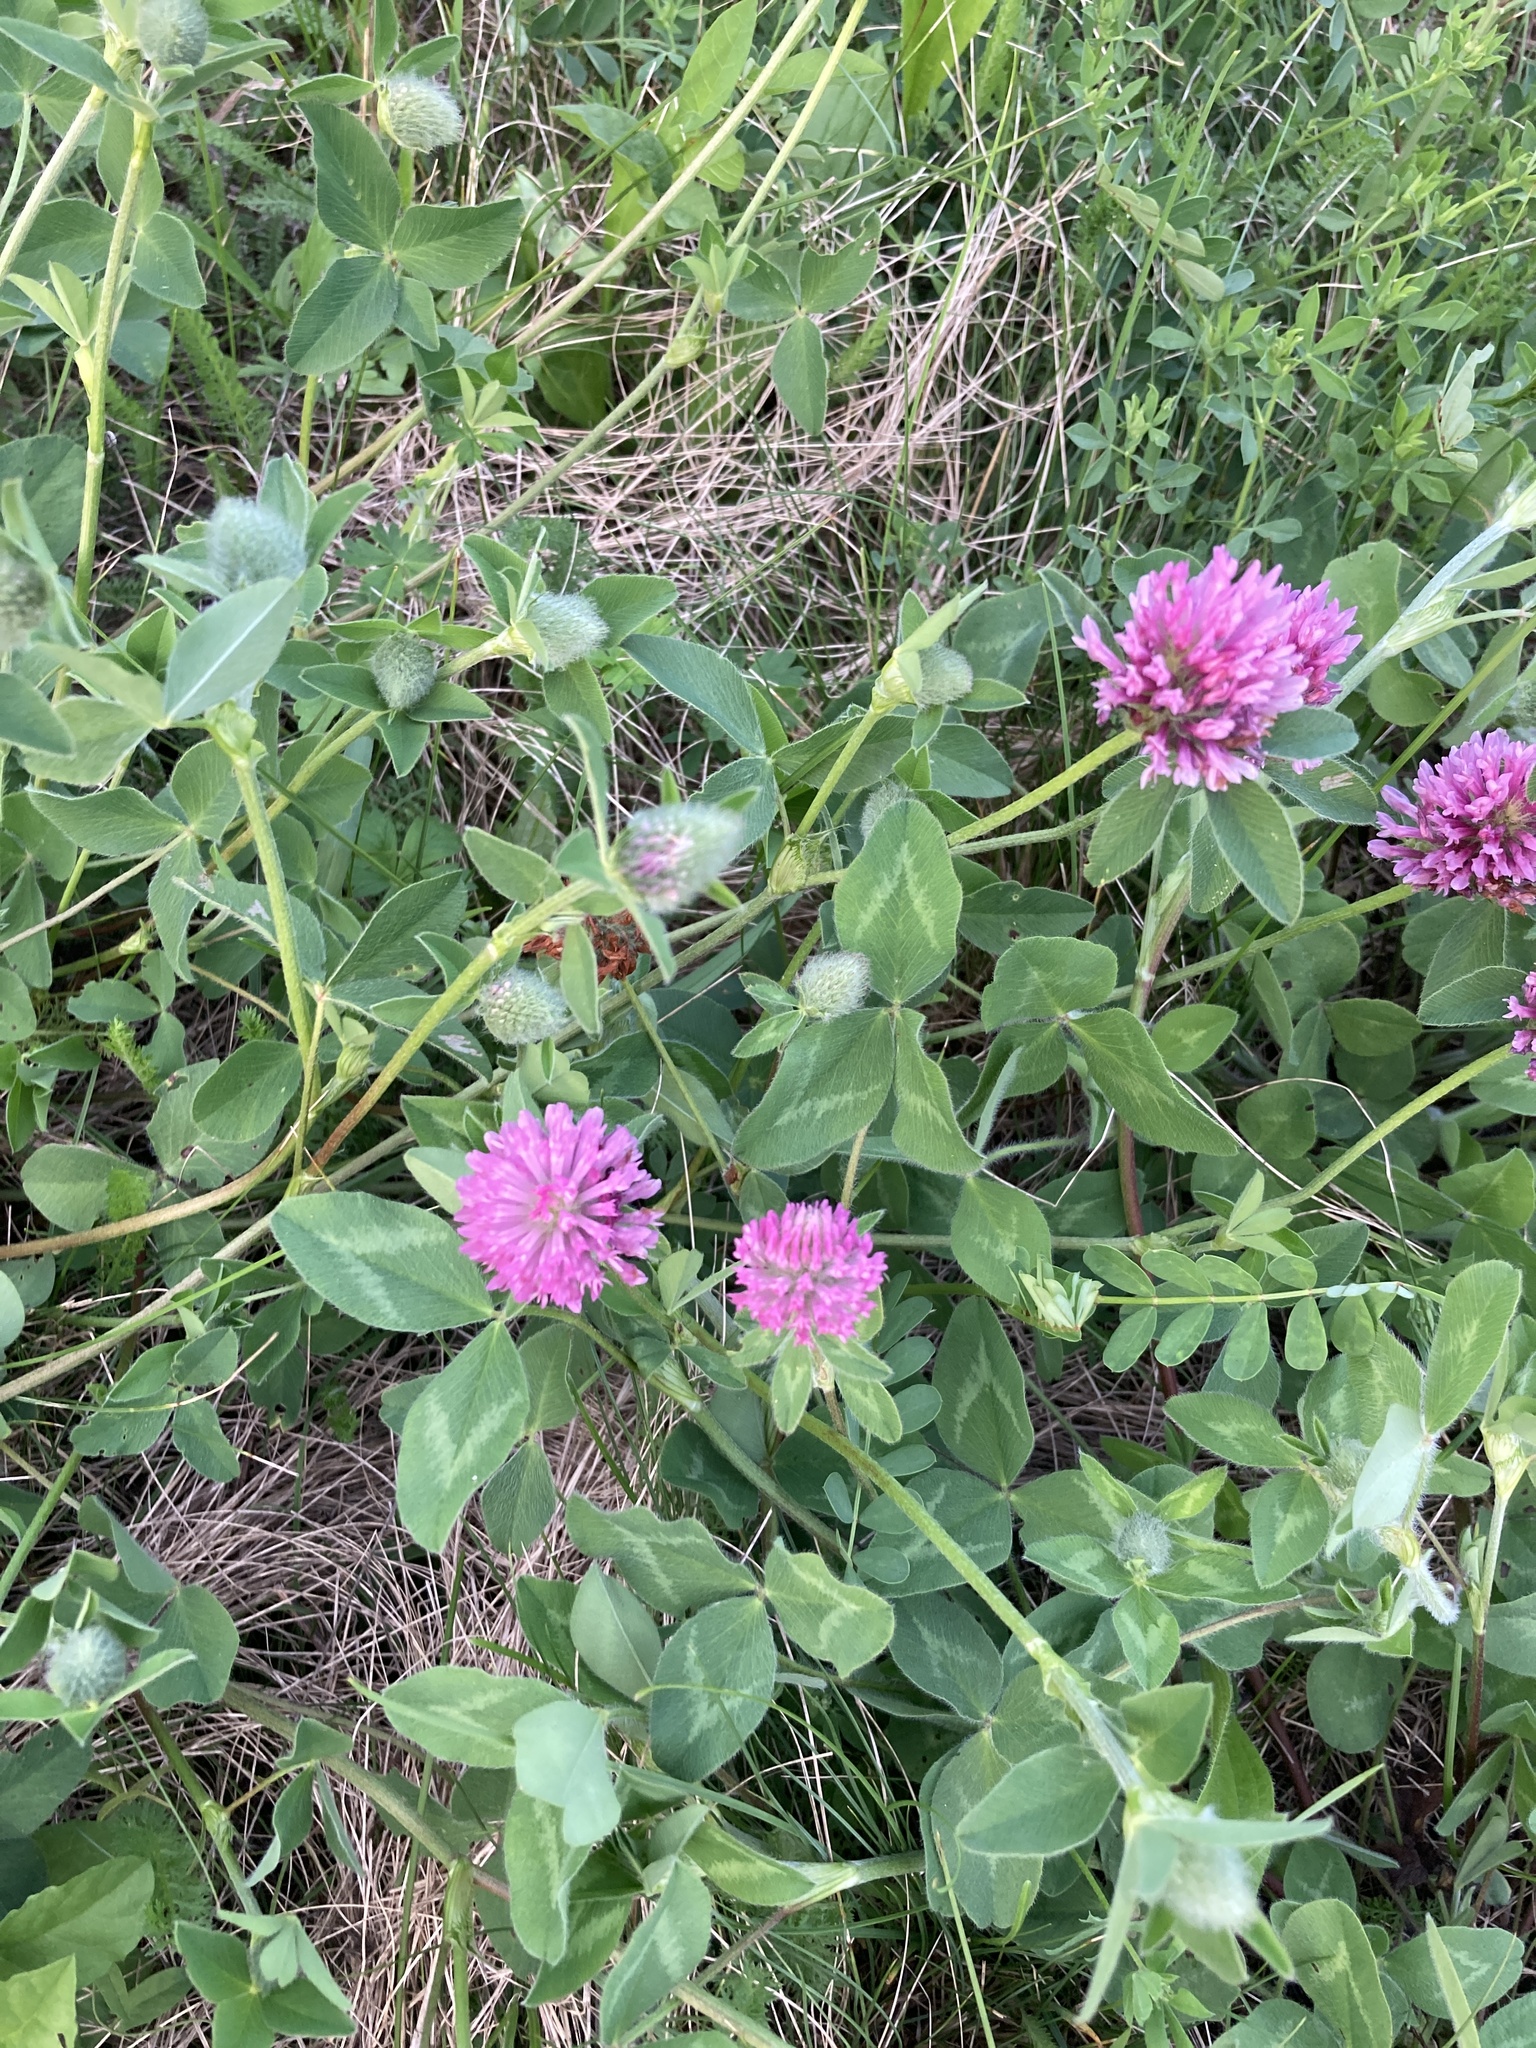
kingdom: Plantae
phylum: Tracheophyta
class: Magnoliopsida
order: Fabales
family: Fabaceae
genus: Trifolium
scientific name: Trifolium pratense
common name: Red clover
